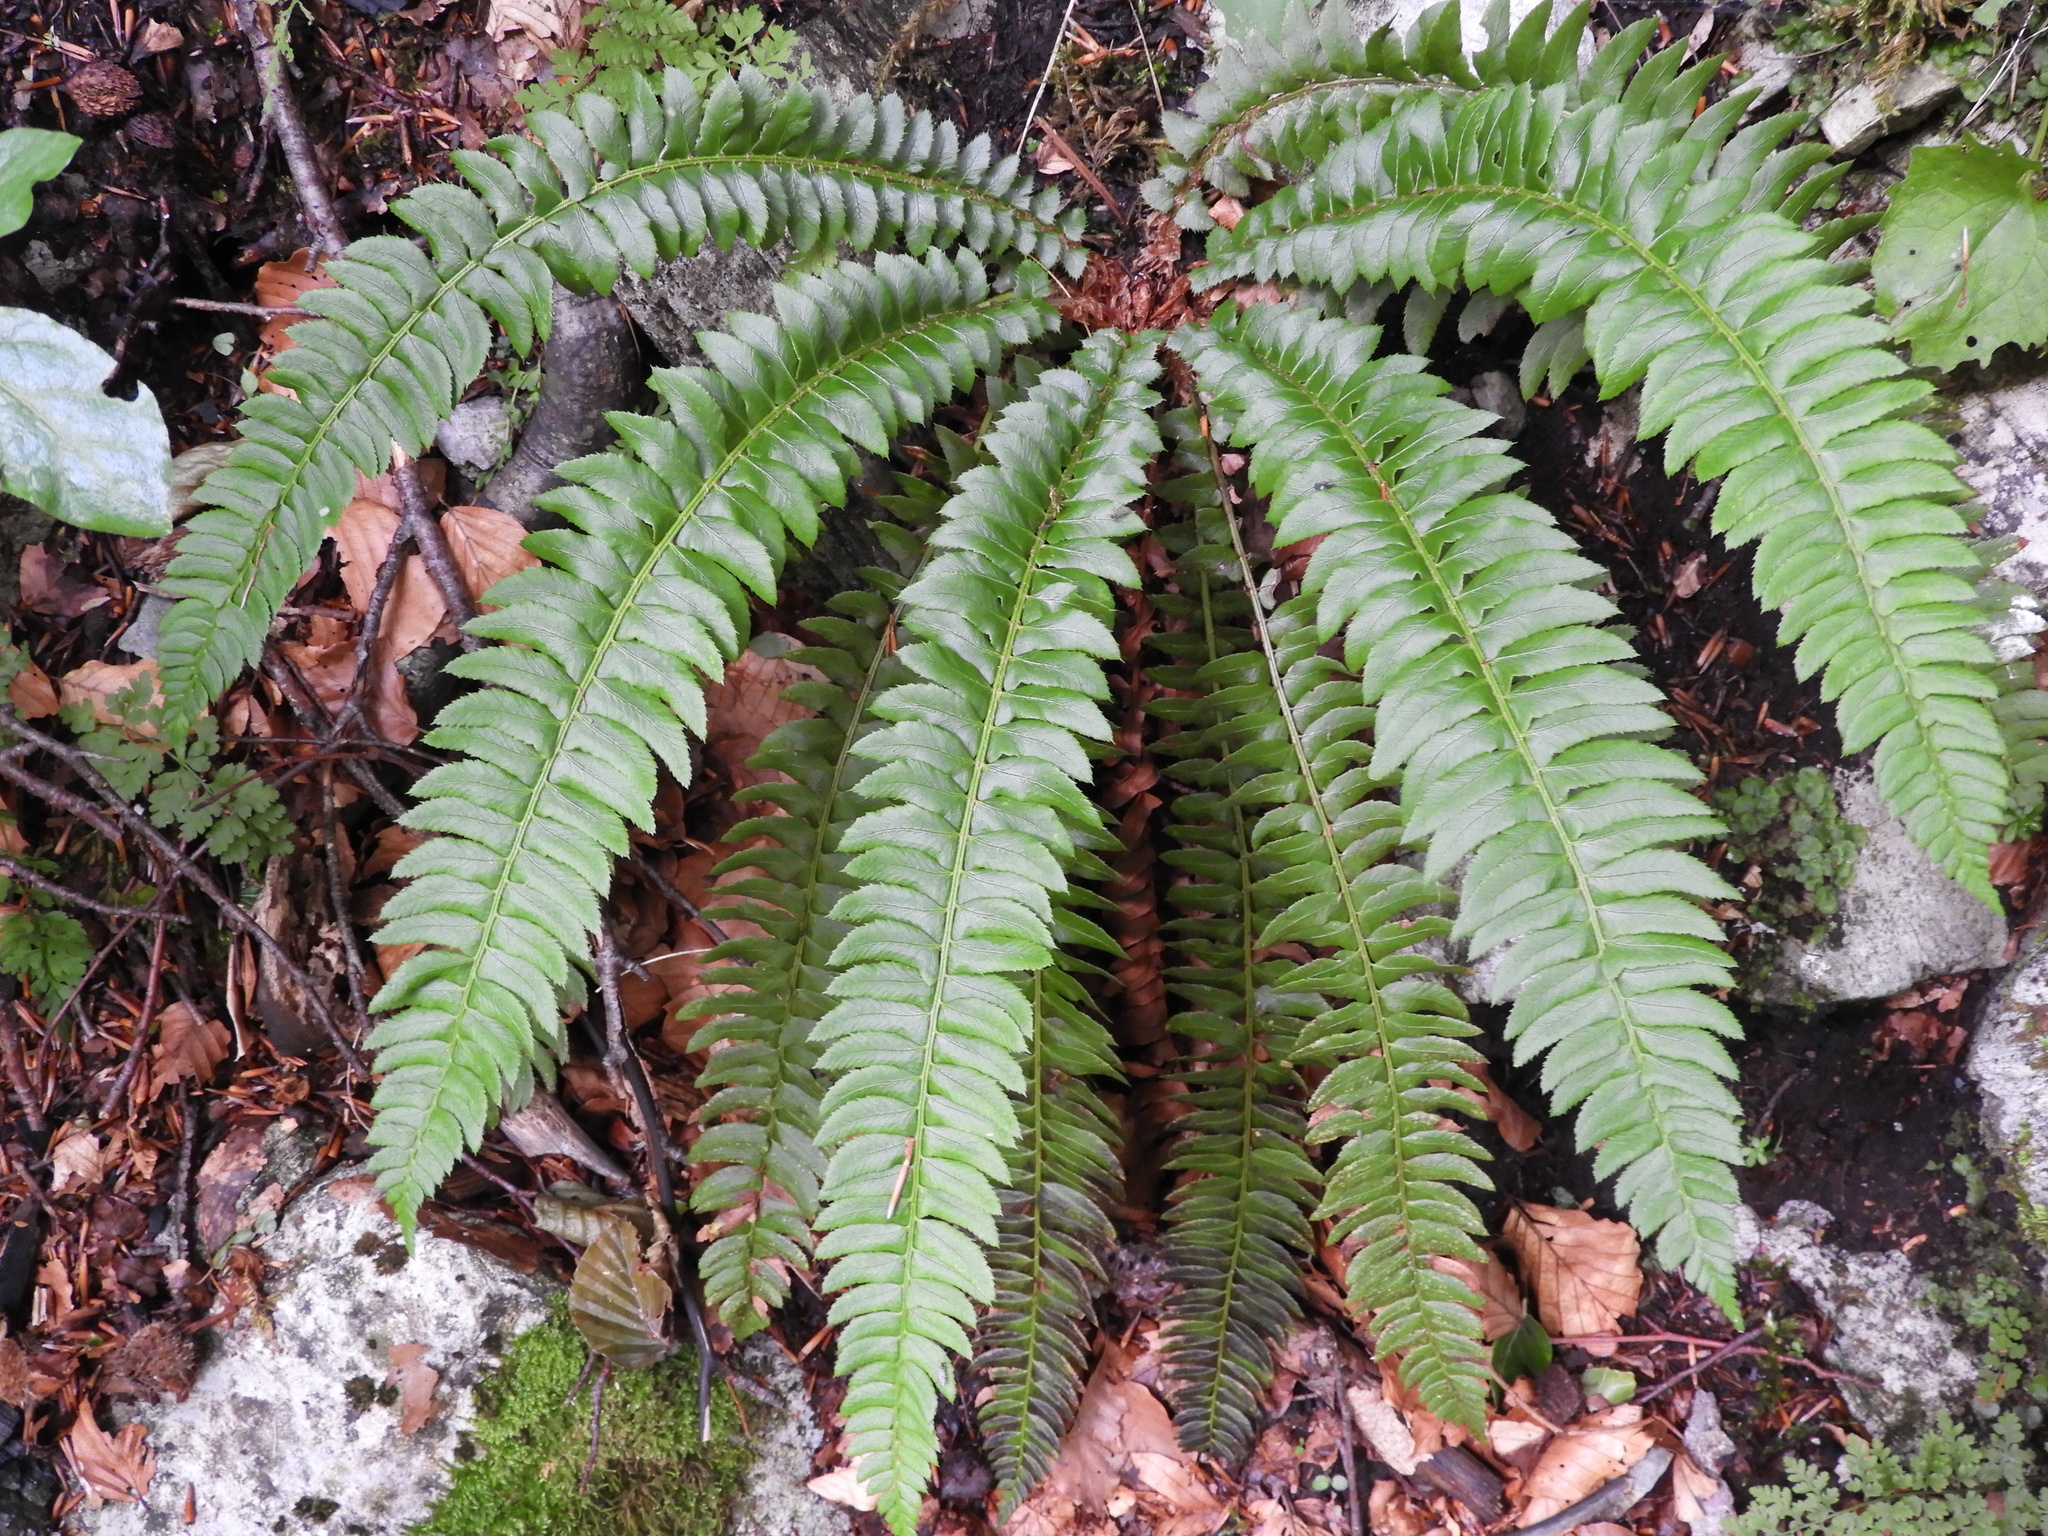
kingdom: Plantae
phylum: Tracheophyta
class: Polypodiopsida
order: Polypodiales
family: Dryopteridaceae
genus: Polystichum
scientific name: Polystichum lonchitis
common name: Holly fern
